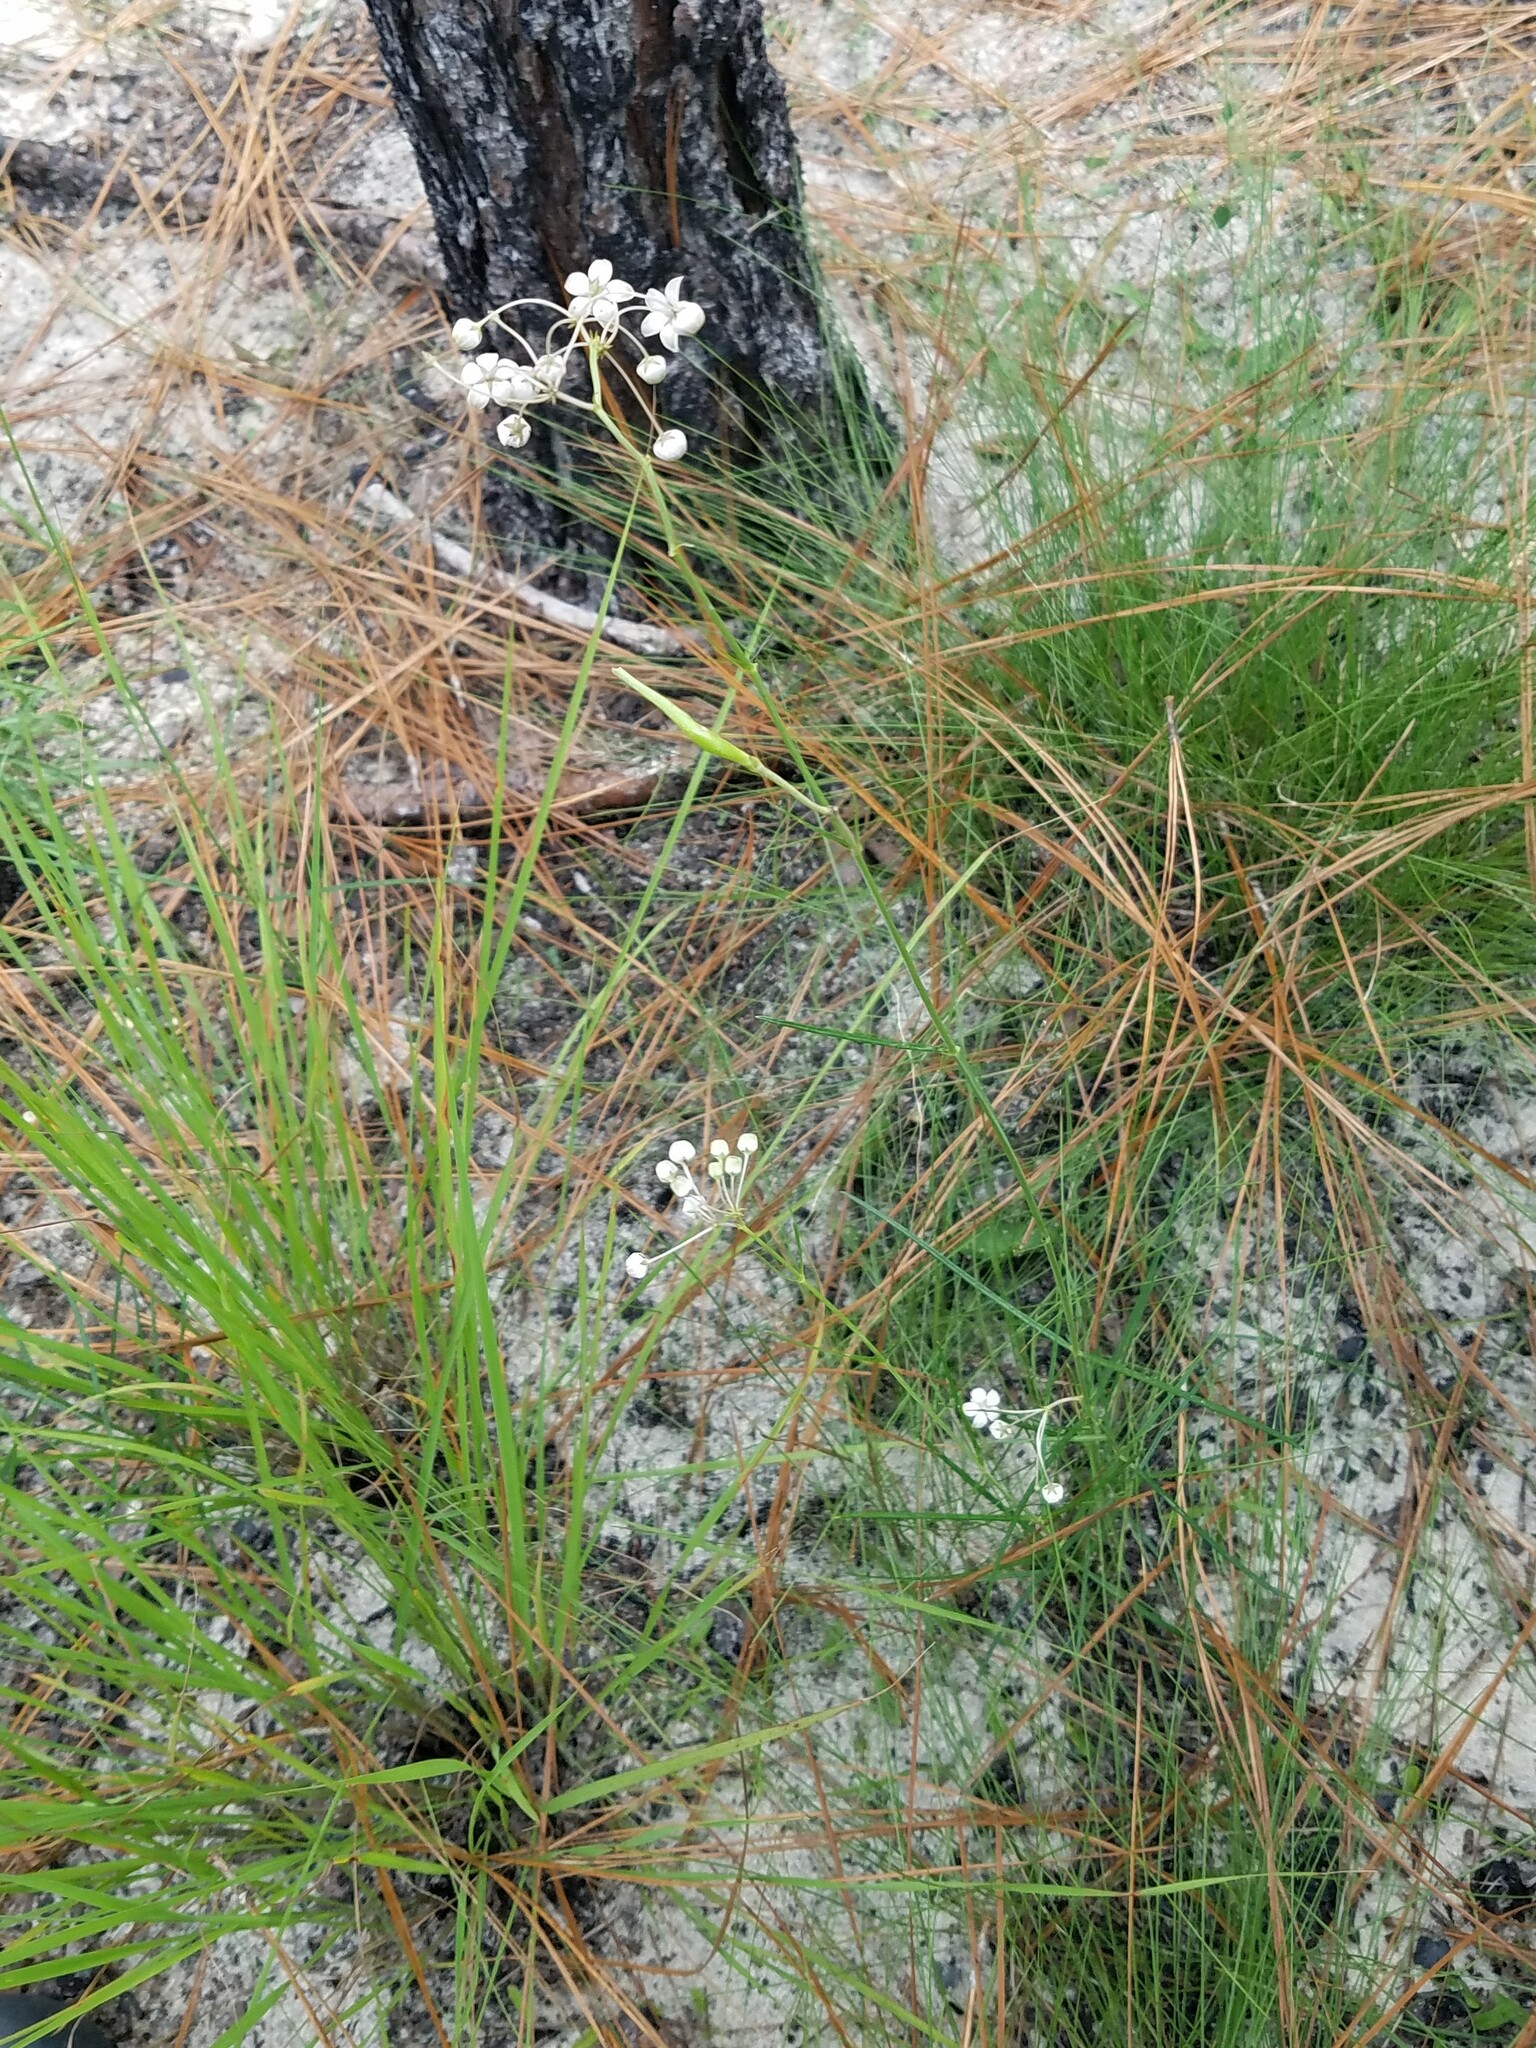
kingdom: Plantae
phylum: Tracheophyta
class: Magnoliopsida
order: Gentianales
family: Apocynaceae
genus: Asclepias
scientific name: Asclepias cinerea
